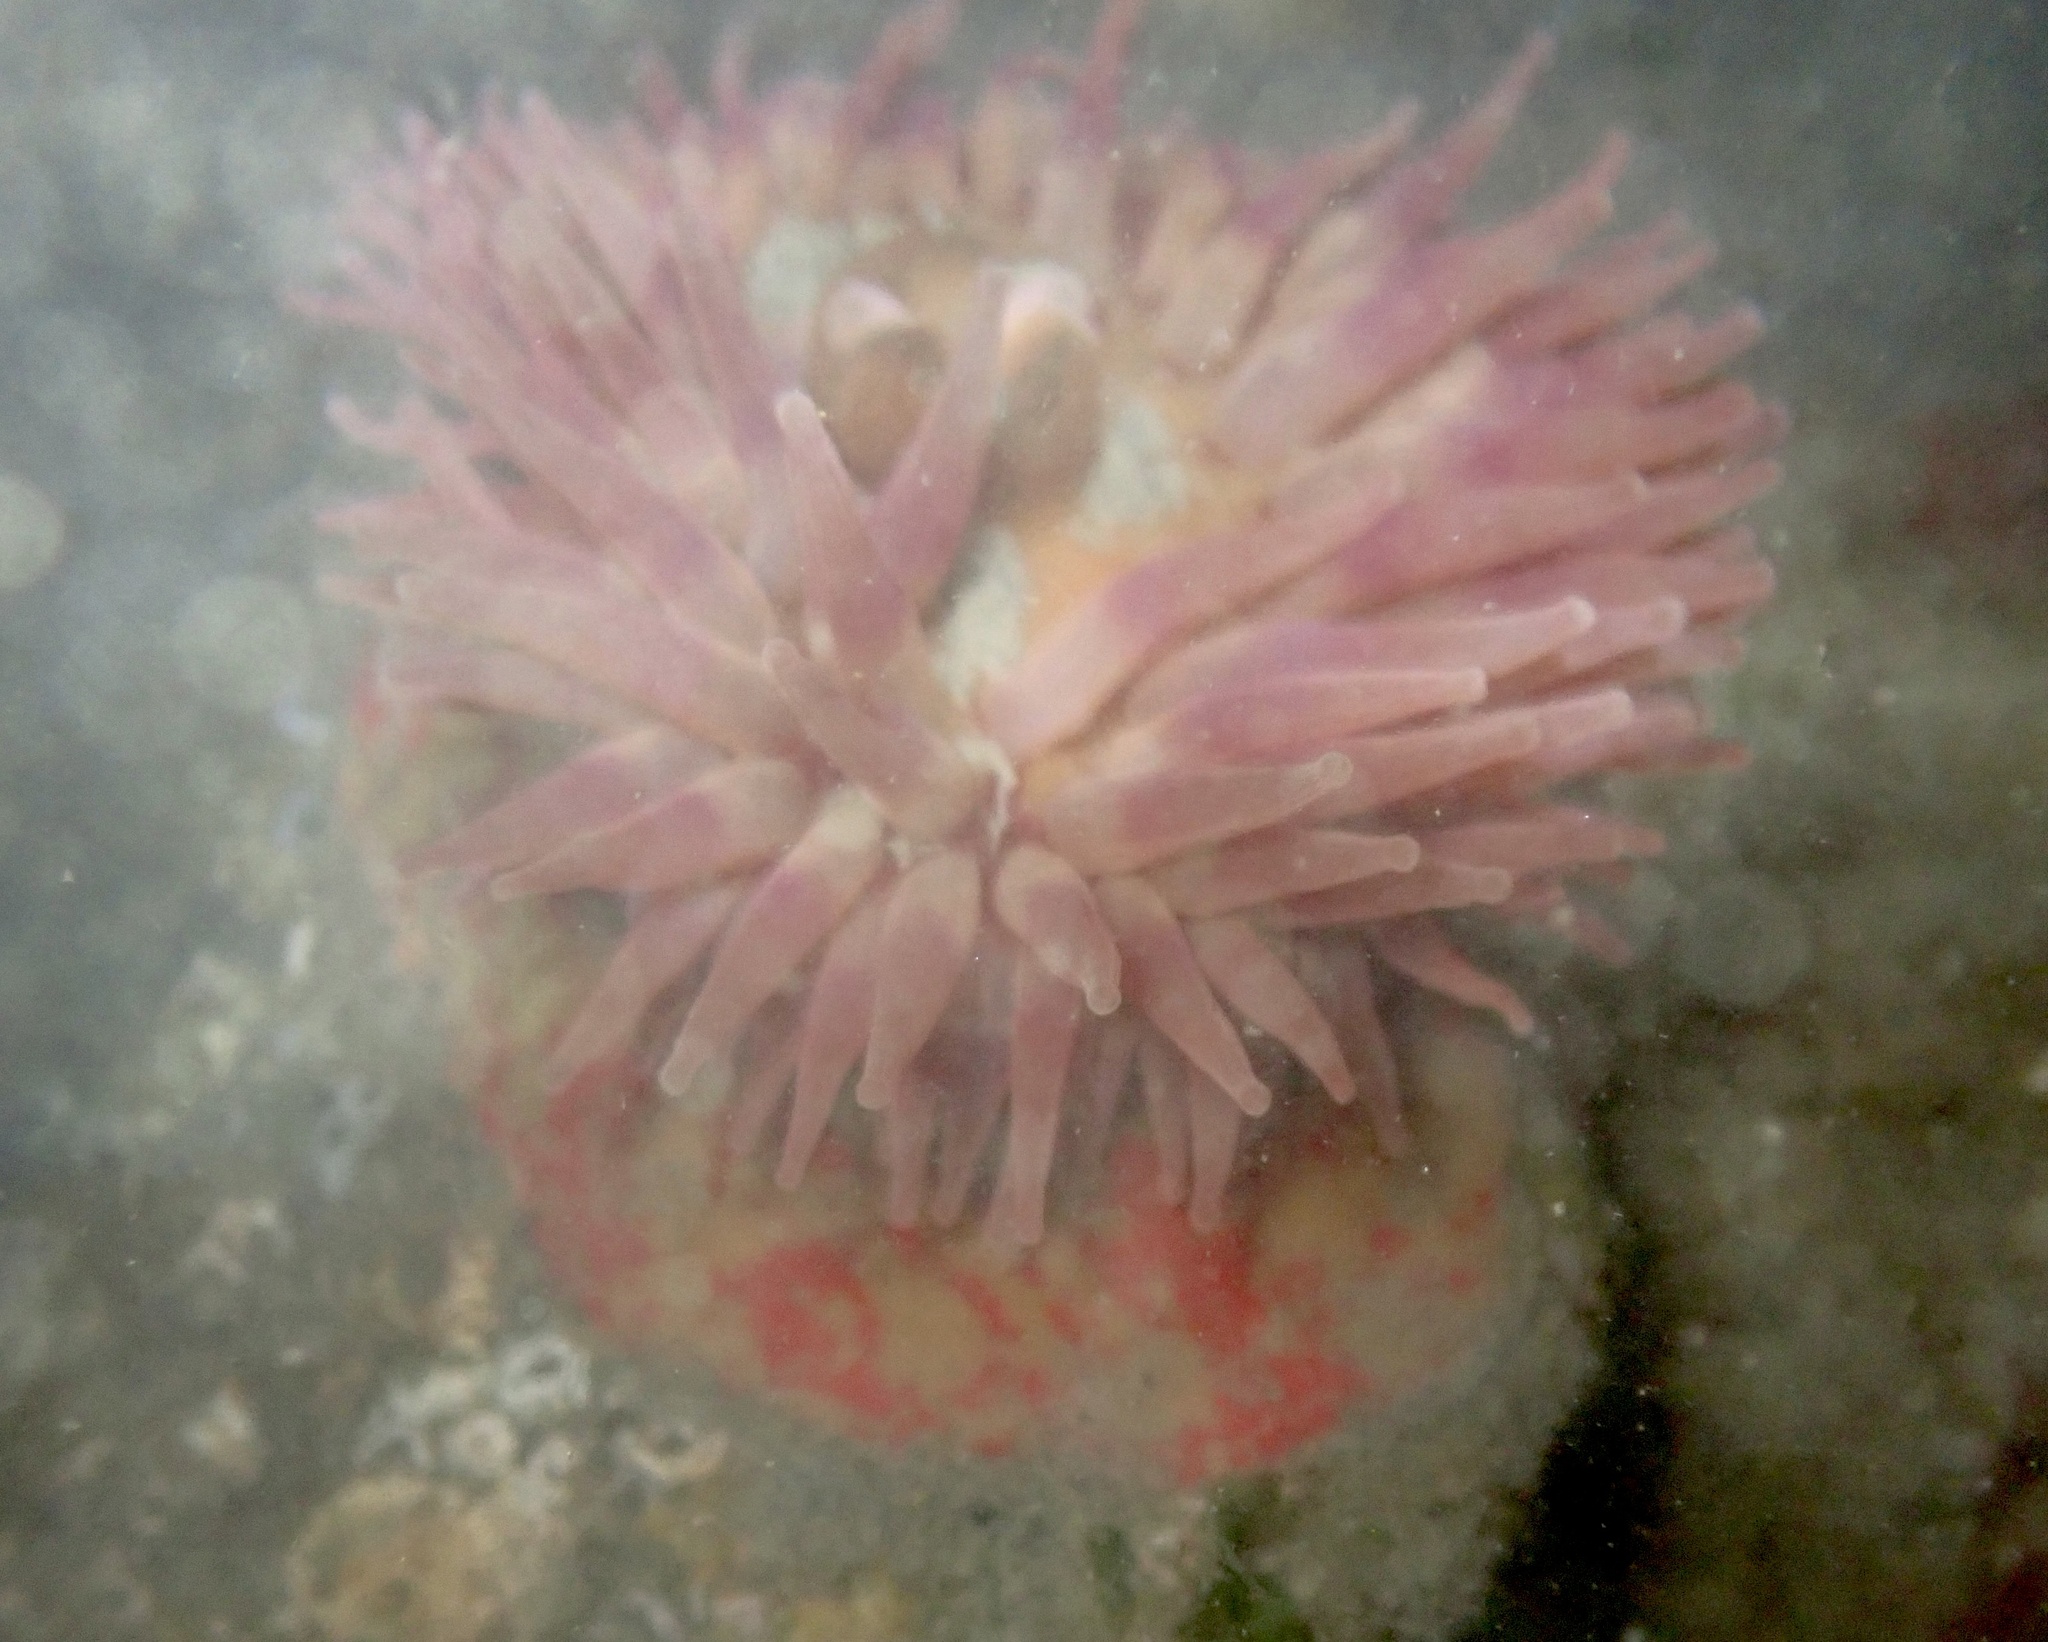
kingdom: Animalia
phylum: Cnidaria
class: Anthozoa
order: Actiniaria
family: Actiniidae
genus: Urticina
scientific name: Urticina grebelnyi
